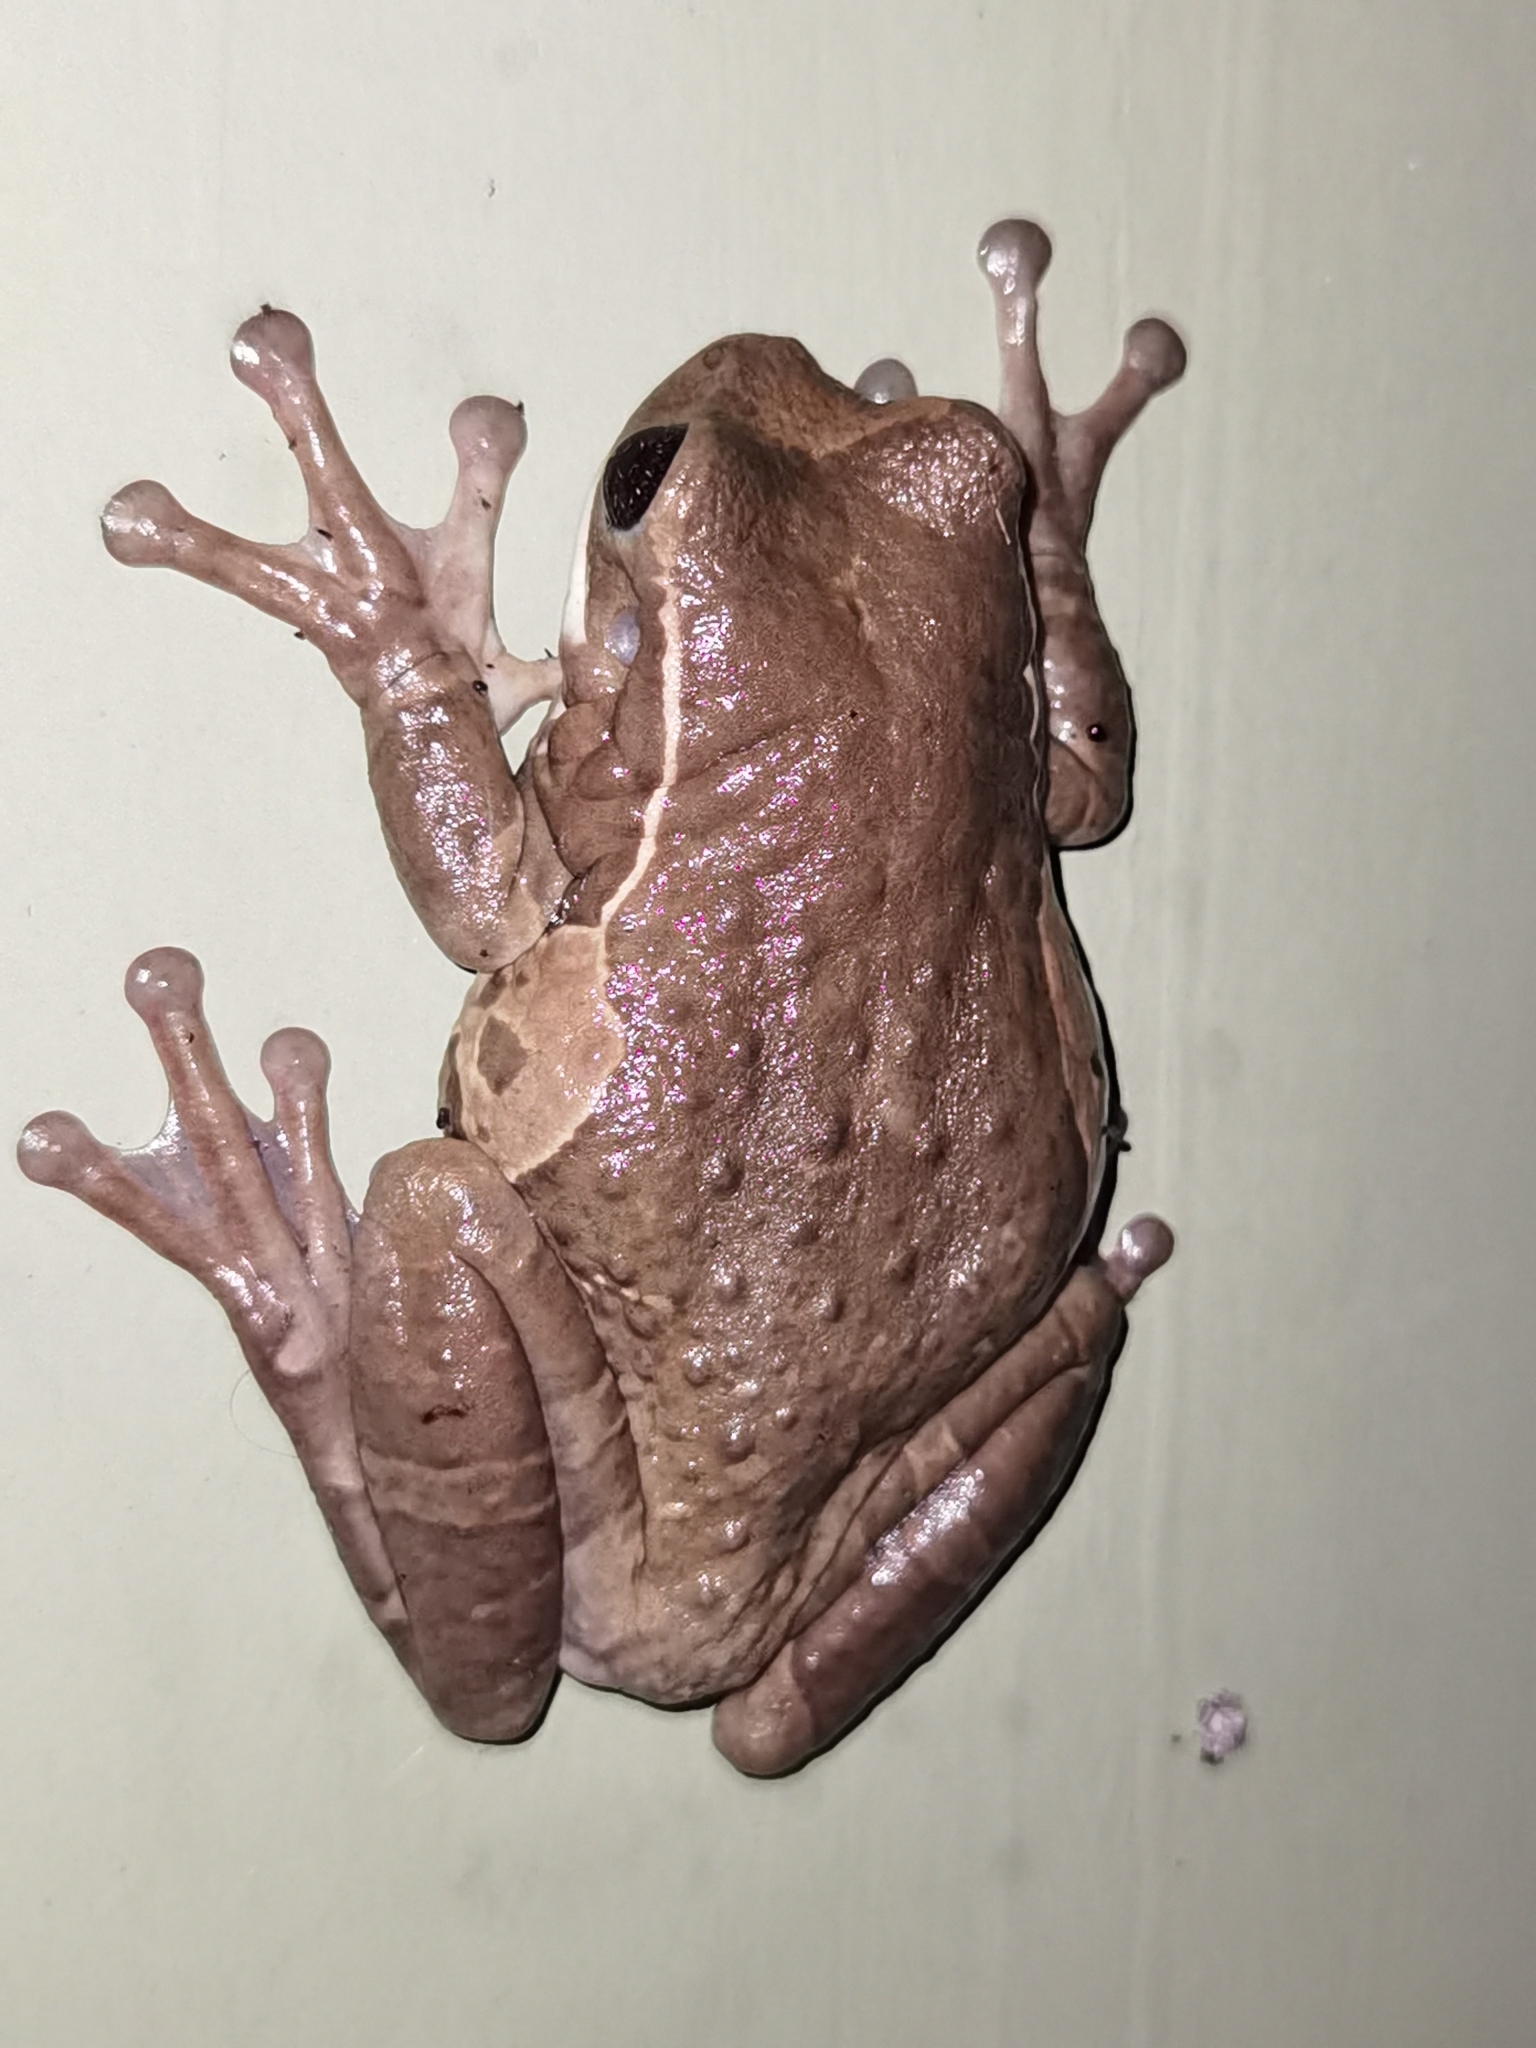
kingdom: Animalia
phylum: Chordata
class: Amphibia
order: Anura
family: Hylidae
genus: Trachycephalus
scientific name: Trachycephalus vermiculatus
